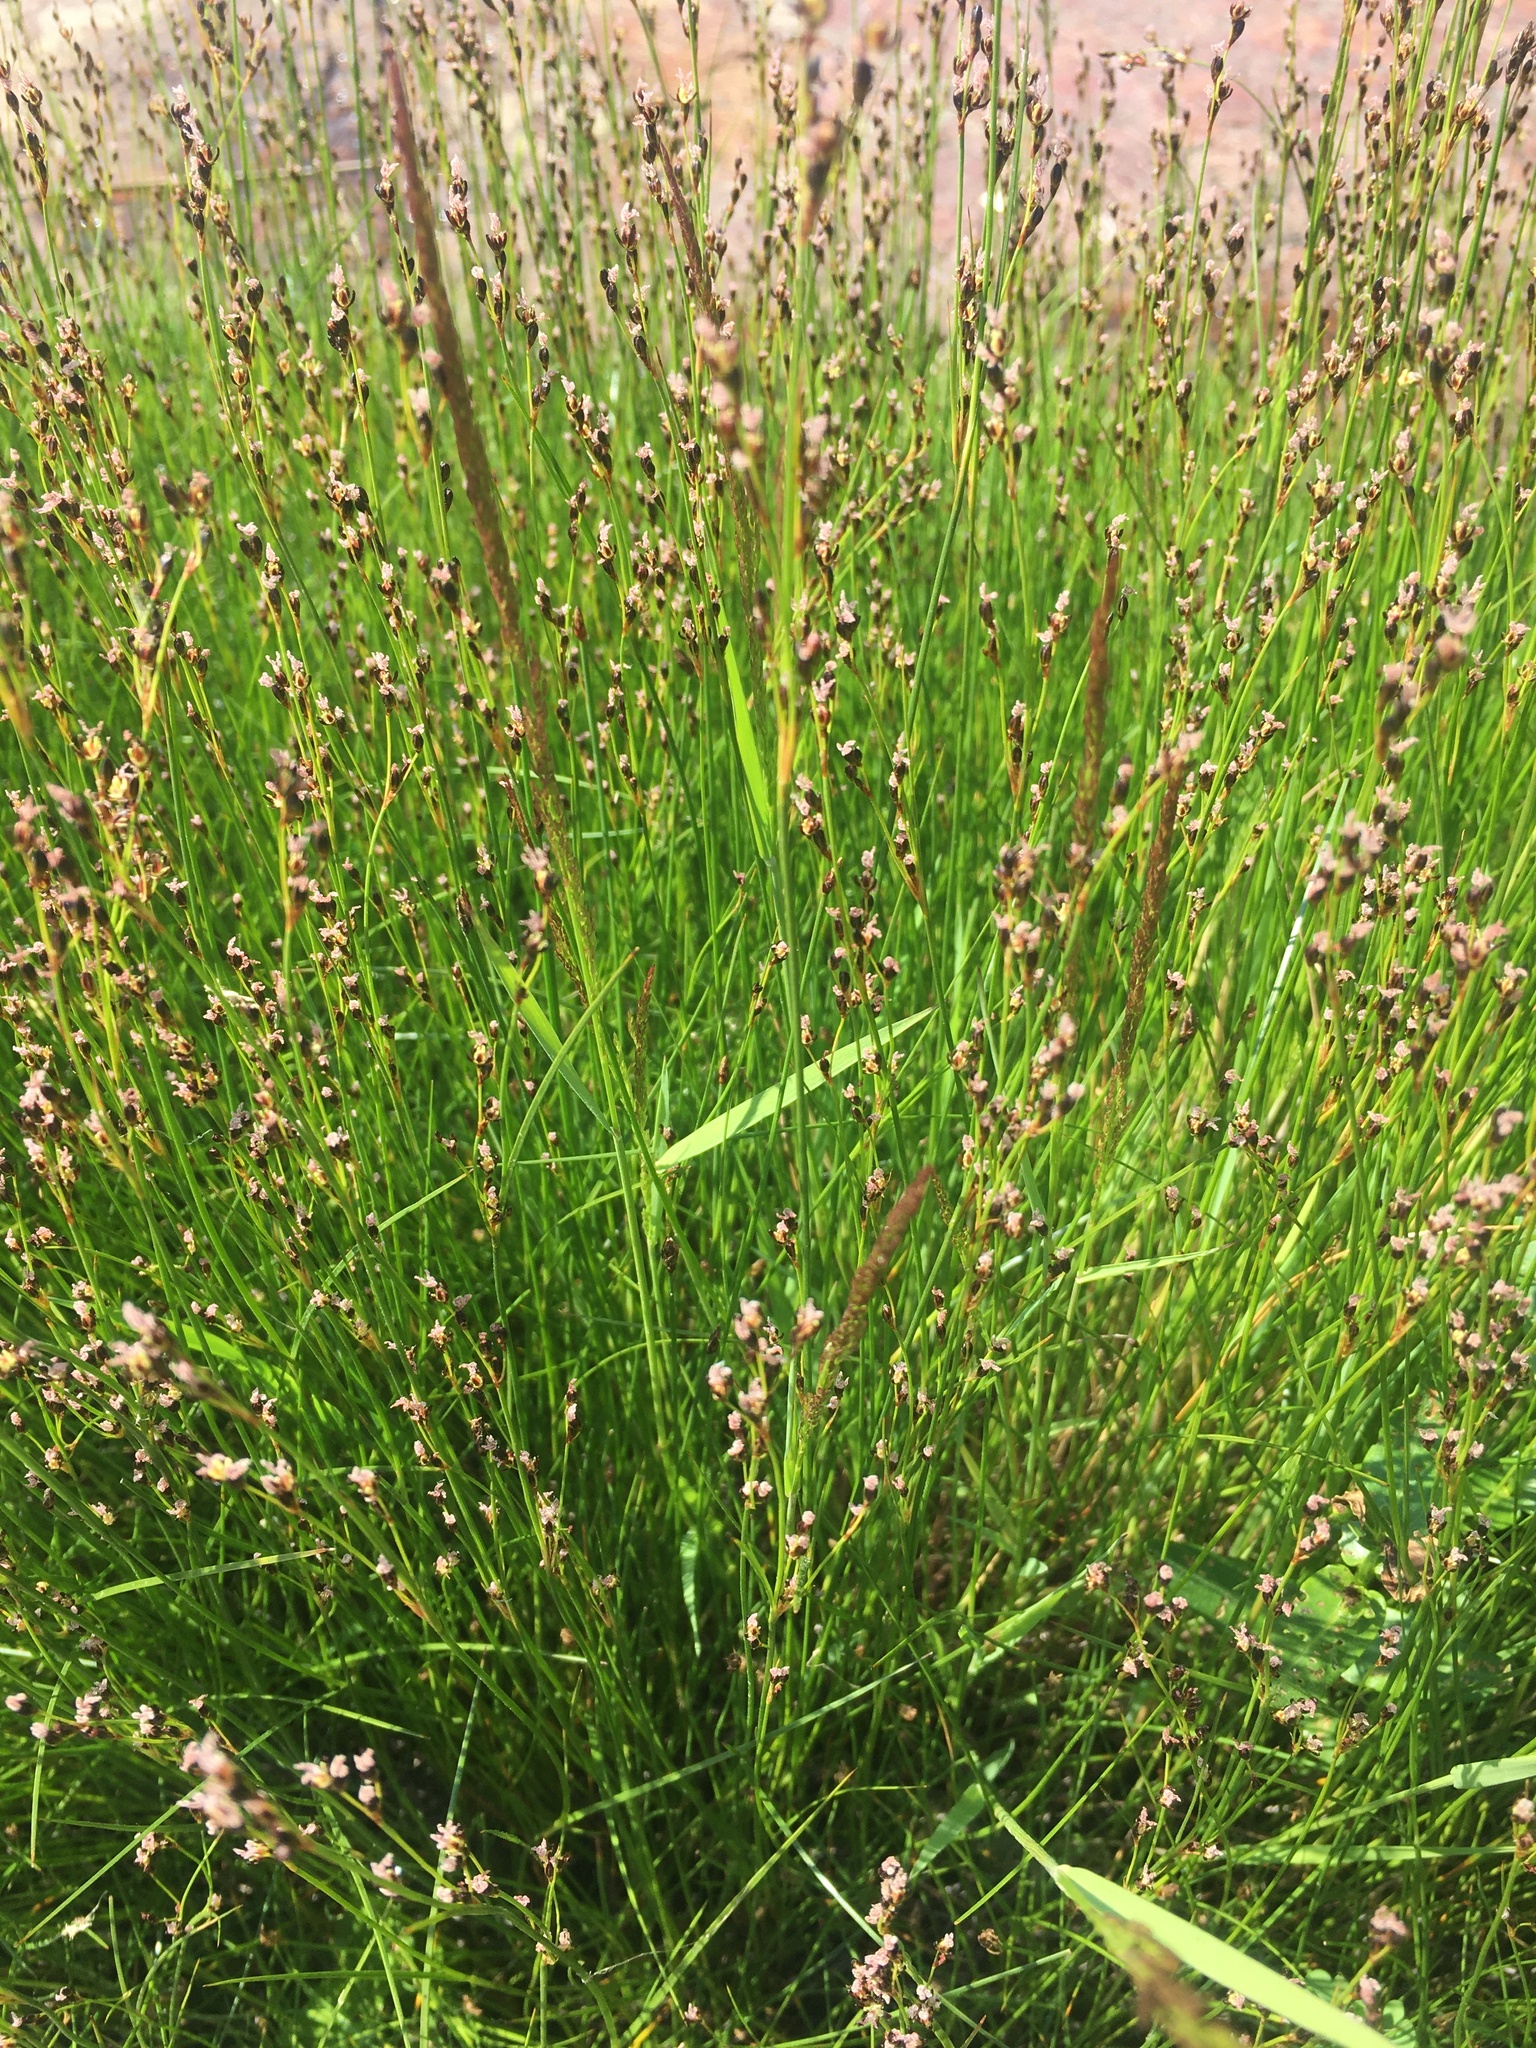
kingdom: Plantae
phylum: Tracheophyta
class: Liliopsida
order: Poales
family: Juncaceae
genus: Juncus
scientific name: Juncus gerardi
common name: Saltmarsh rush
